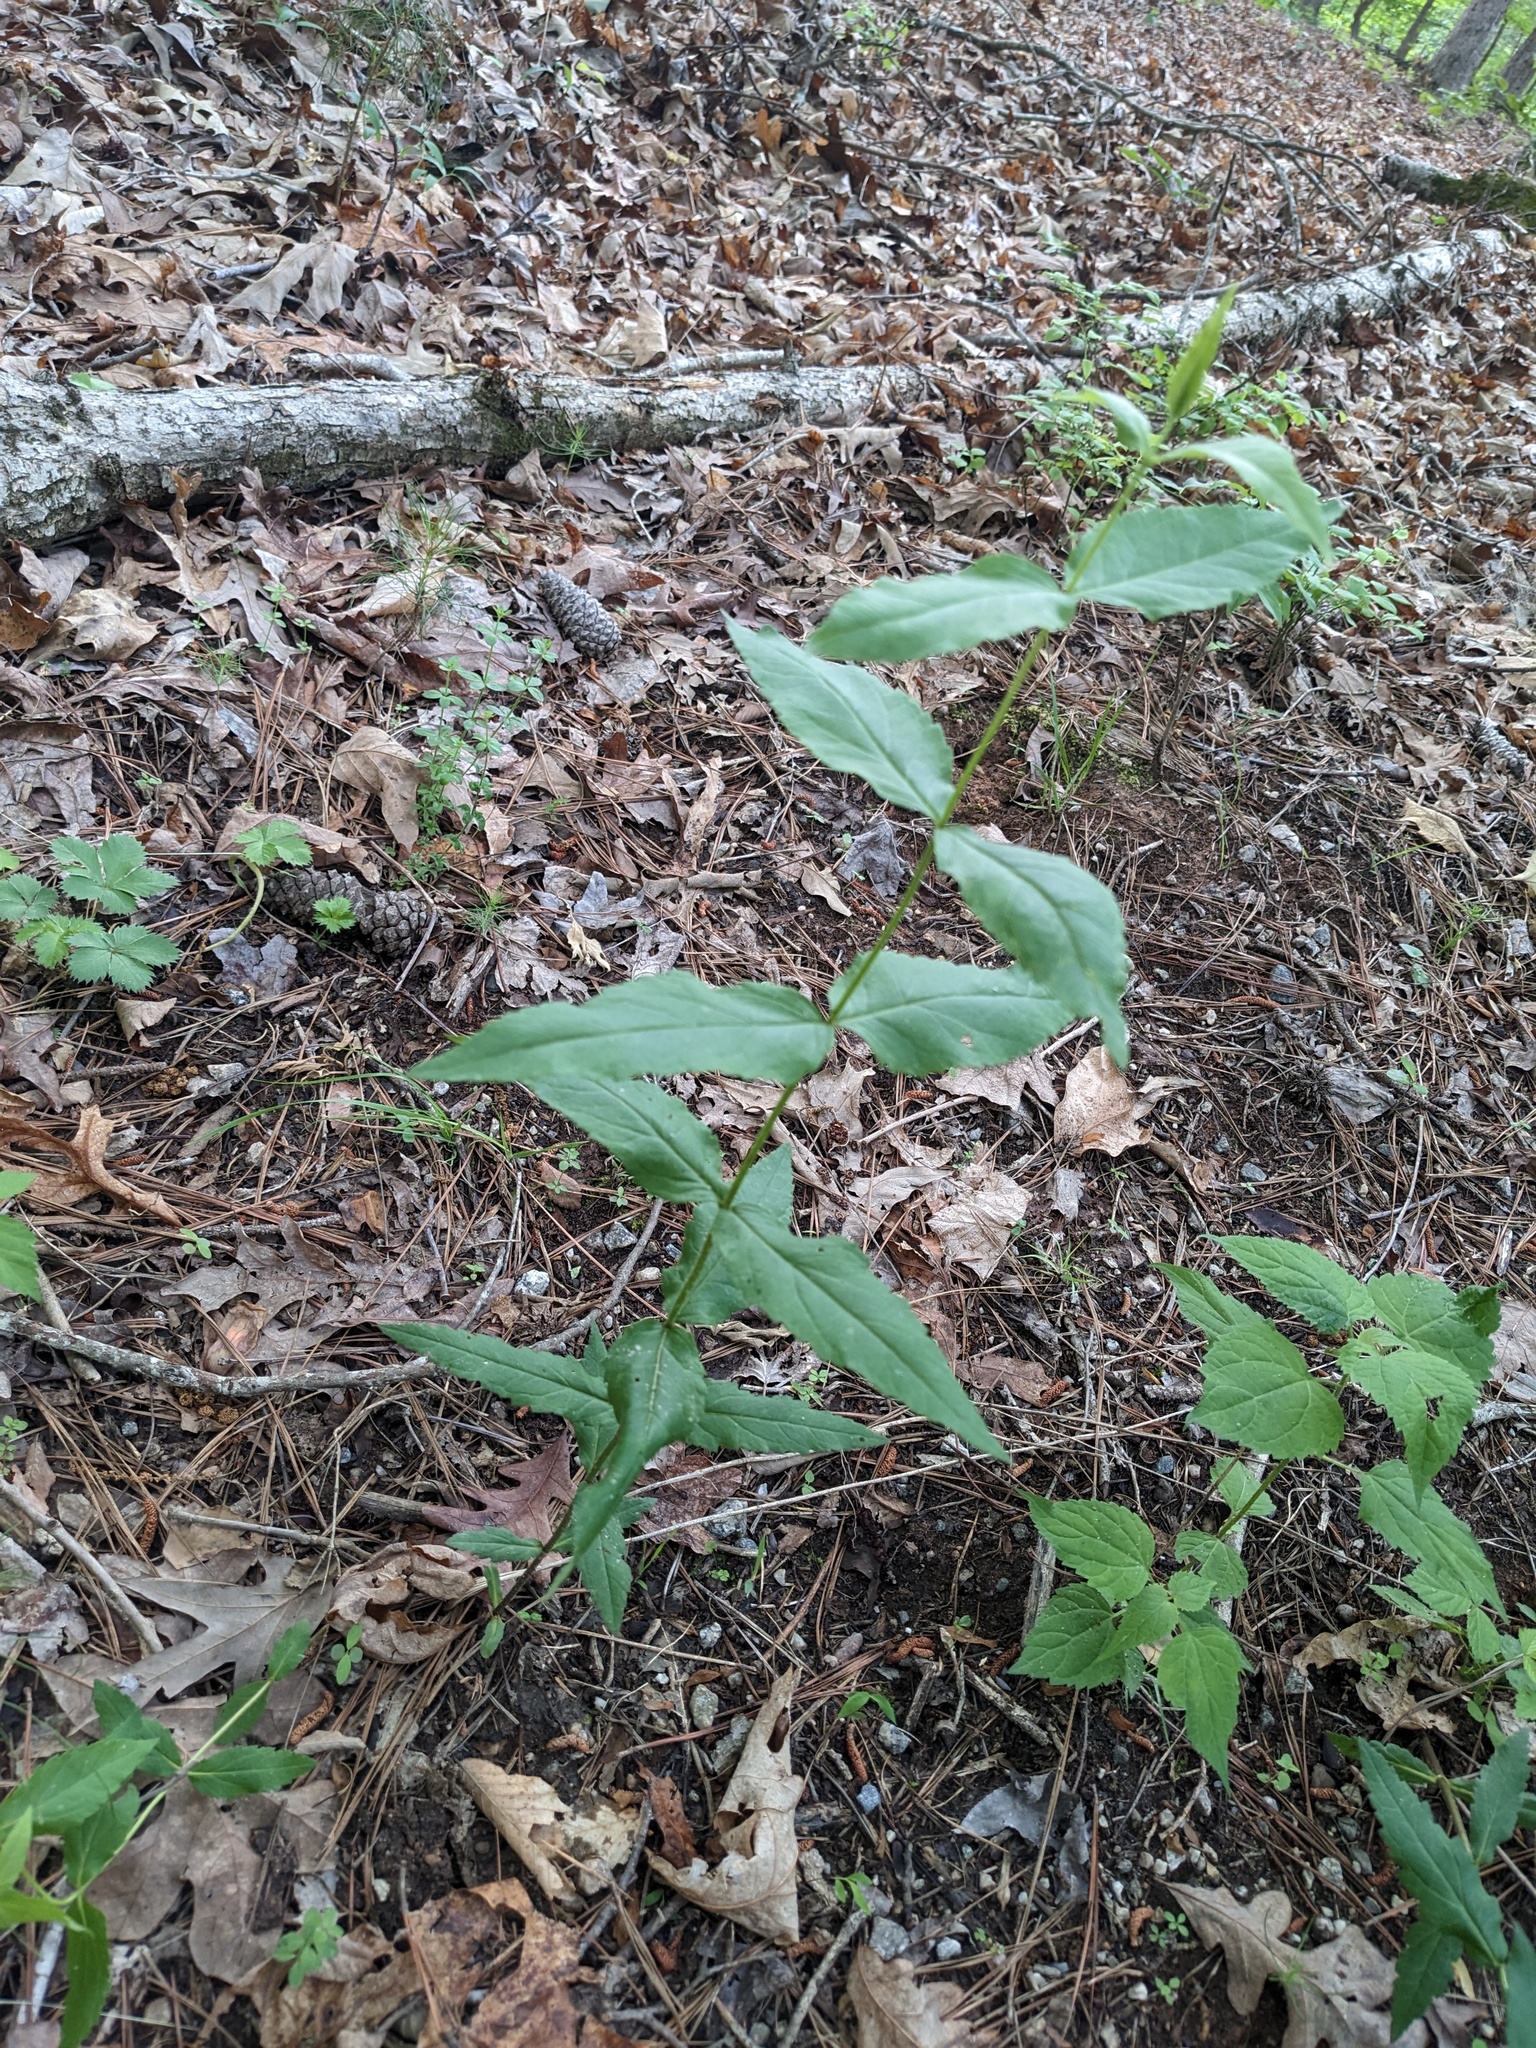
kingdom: Plantae
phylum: Tracheophyta
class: Magnoliopsida
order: Asterales
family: Asteraceae
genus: Eupatorium
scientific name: Eupatorium godfreyanum
